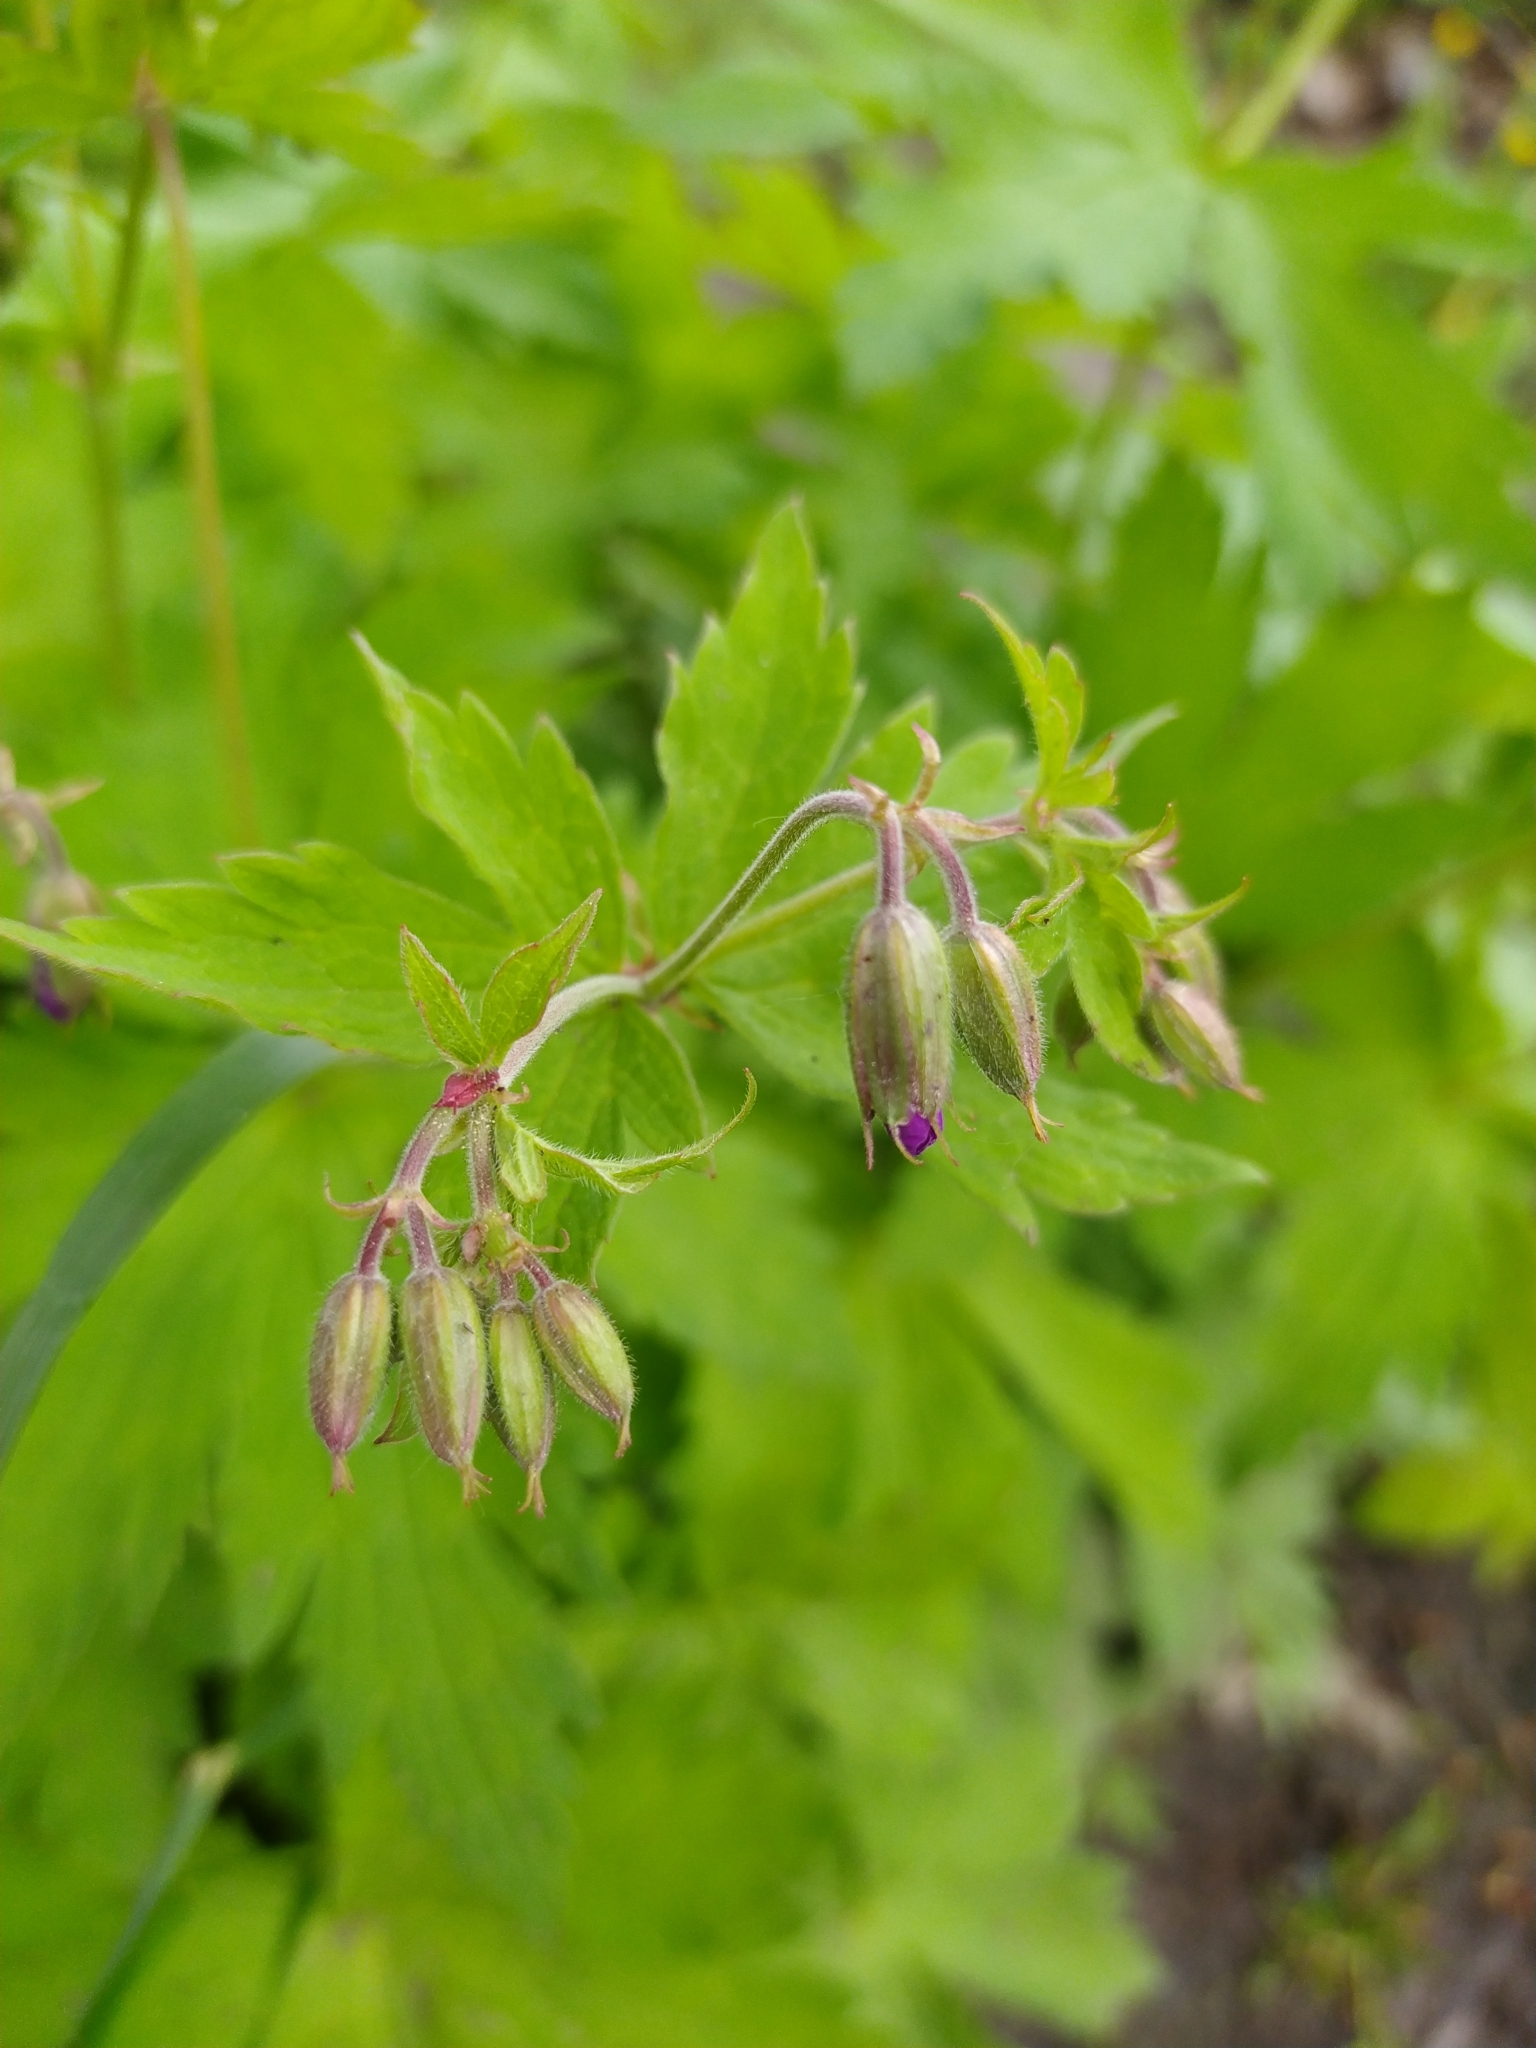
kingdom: Plantae
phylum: Tracheophyta
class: Magnoliopsida
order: Geraniales
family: Geraniaceae
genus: Geranium
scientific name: Geranium sylvaticum
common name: Wood crane's-bill
